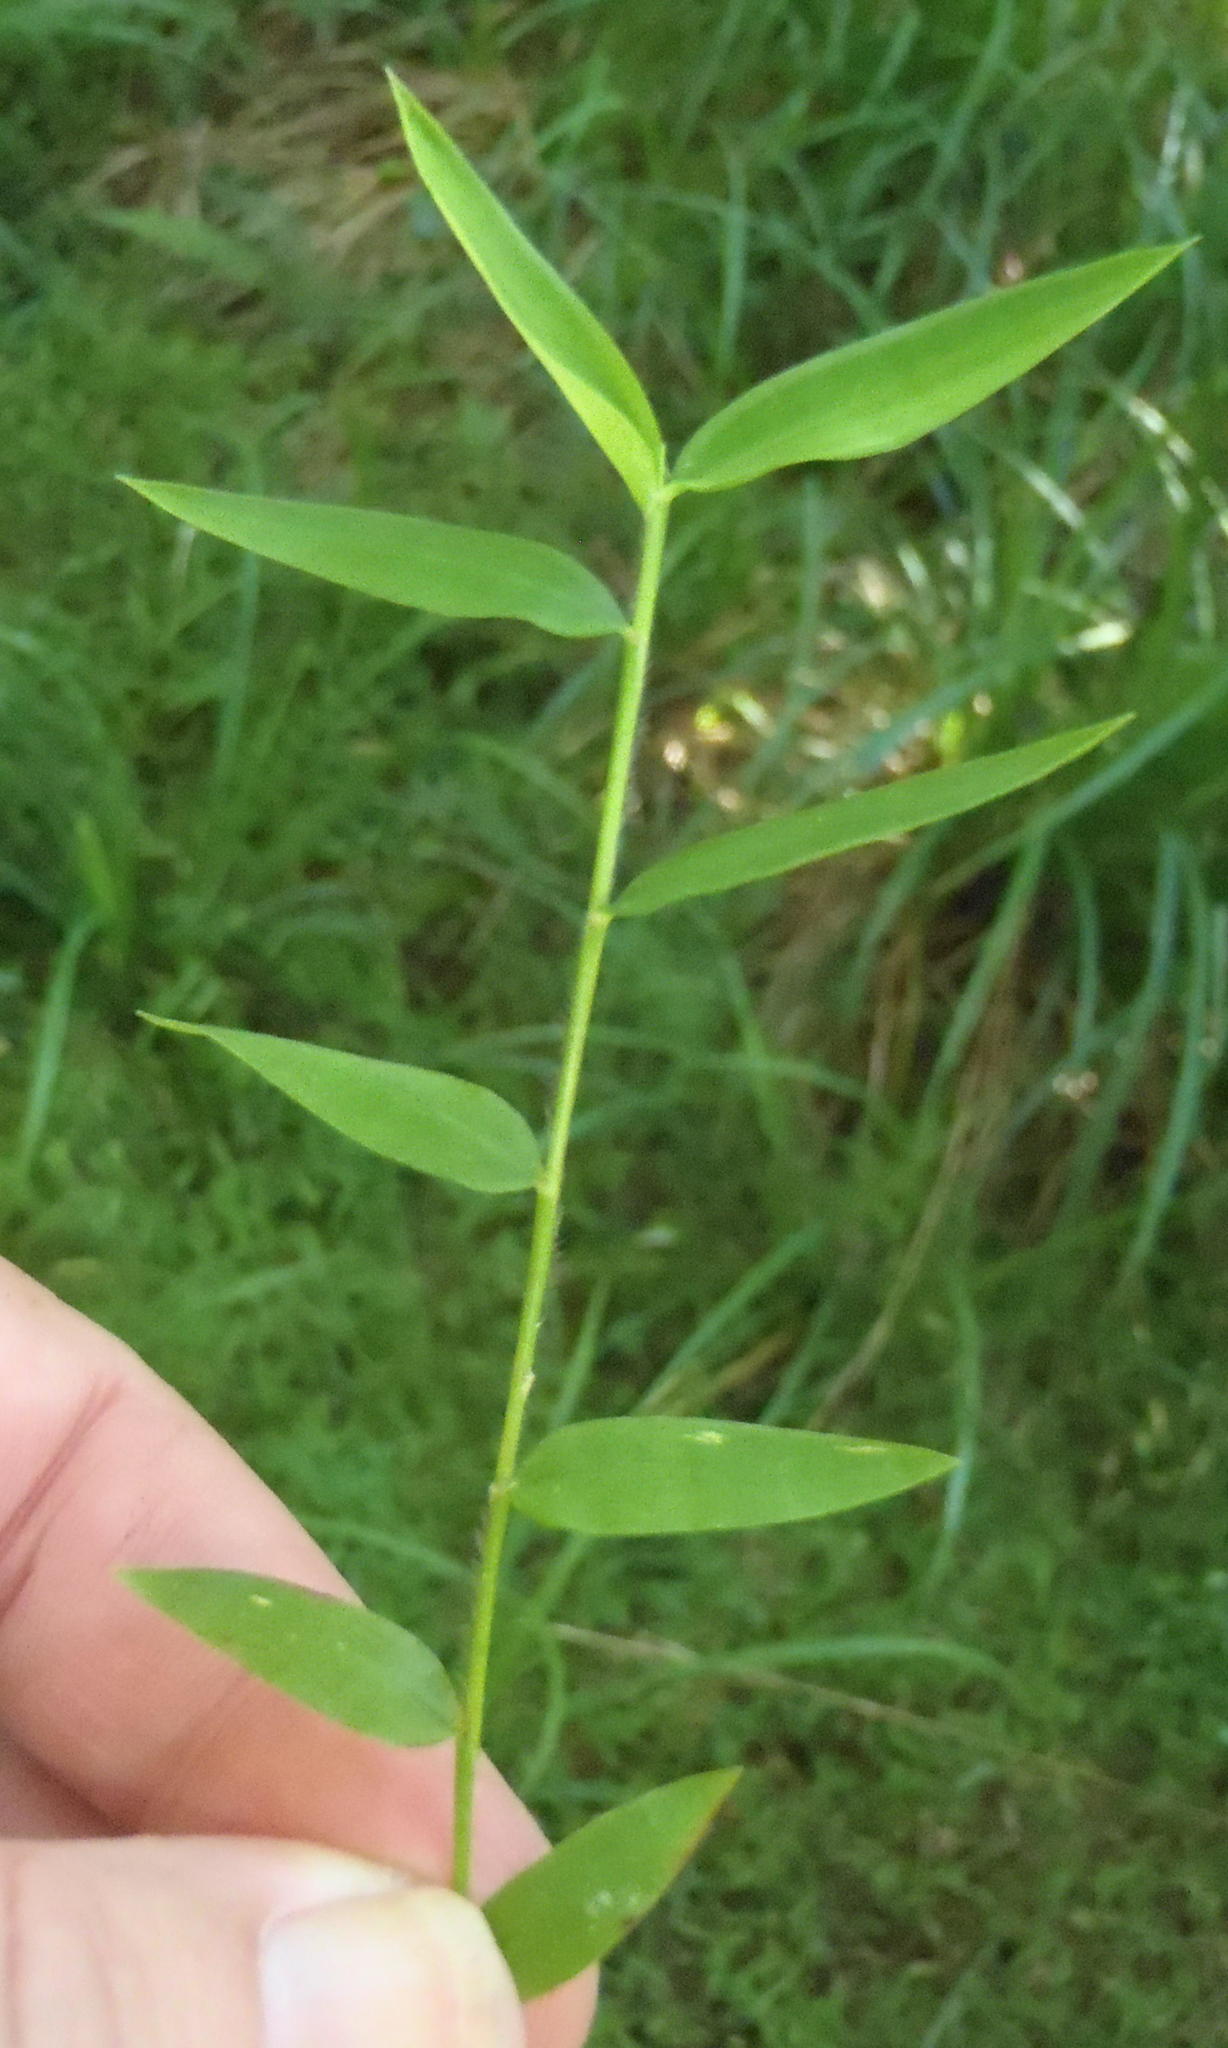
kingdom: Plantae
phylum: Tracheophyta
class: Liliopsida
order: Poales
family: Poaceae
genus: Microstegium
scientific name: Microstegium nudum
